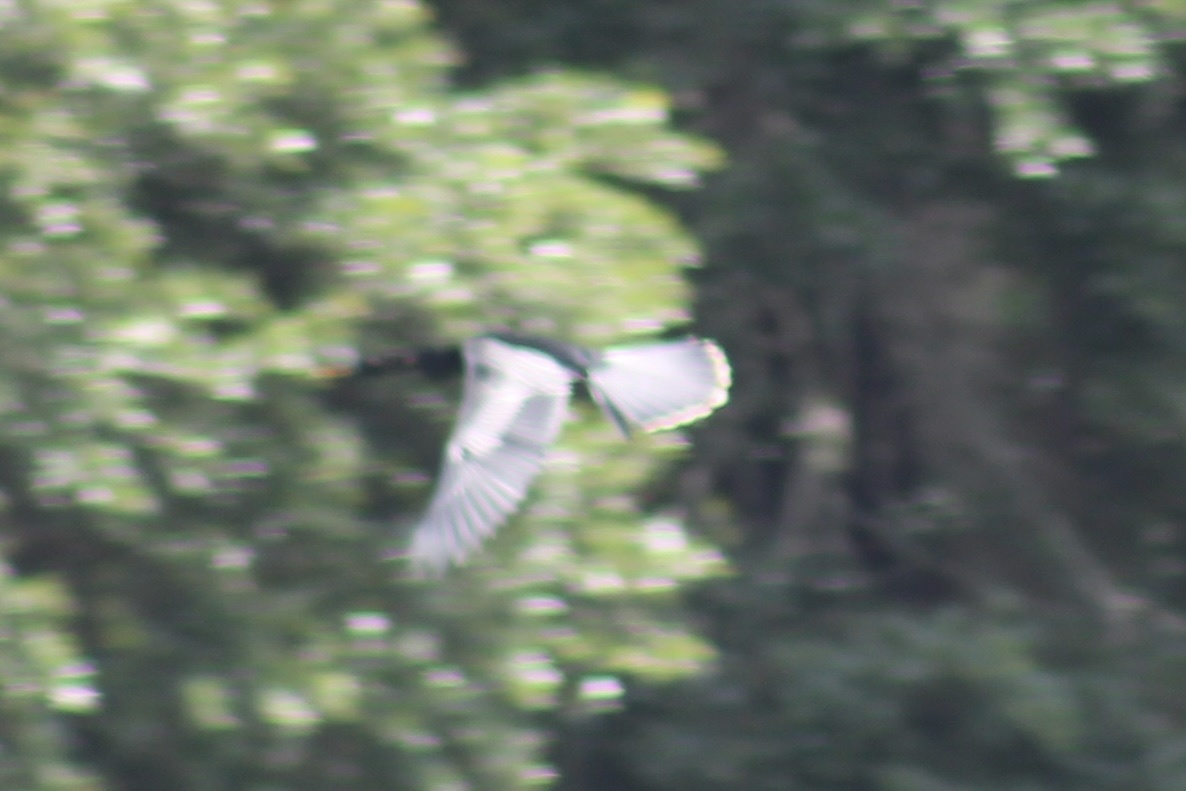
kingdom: Animalia
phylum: Chordata
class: Aves
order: Suliformes
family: Anhingidae
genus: Anhinga
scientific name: Anhinga anhinga
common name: Anhinga
